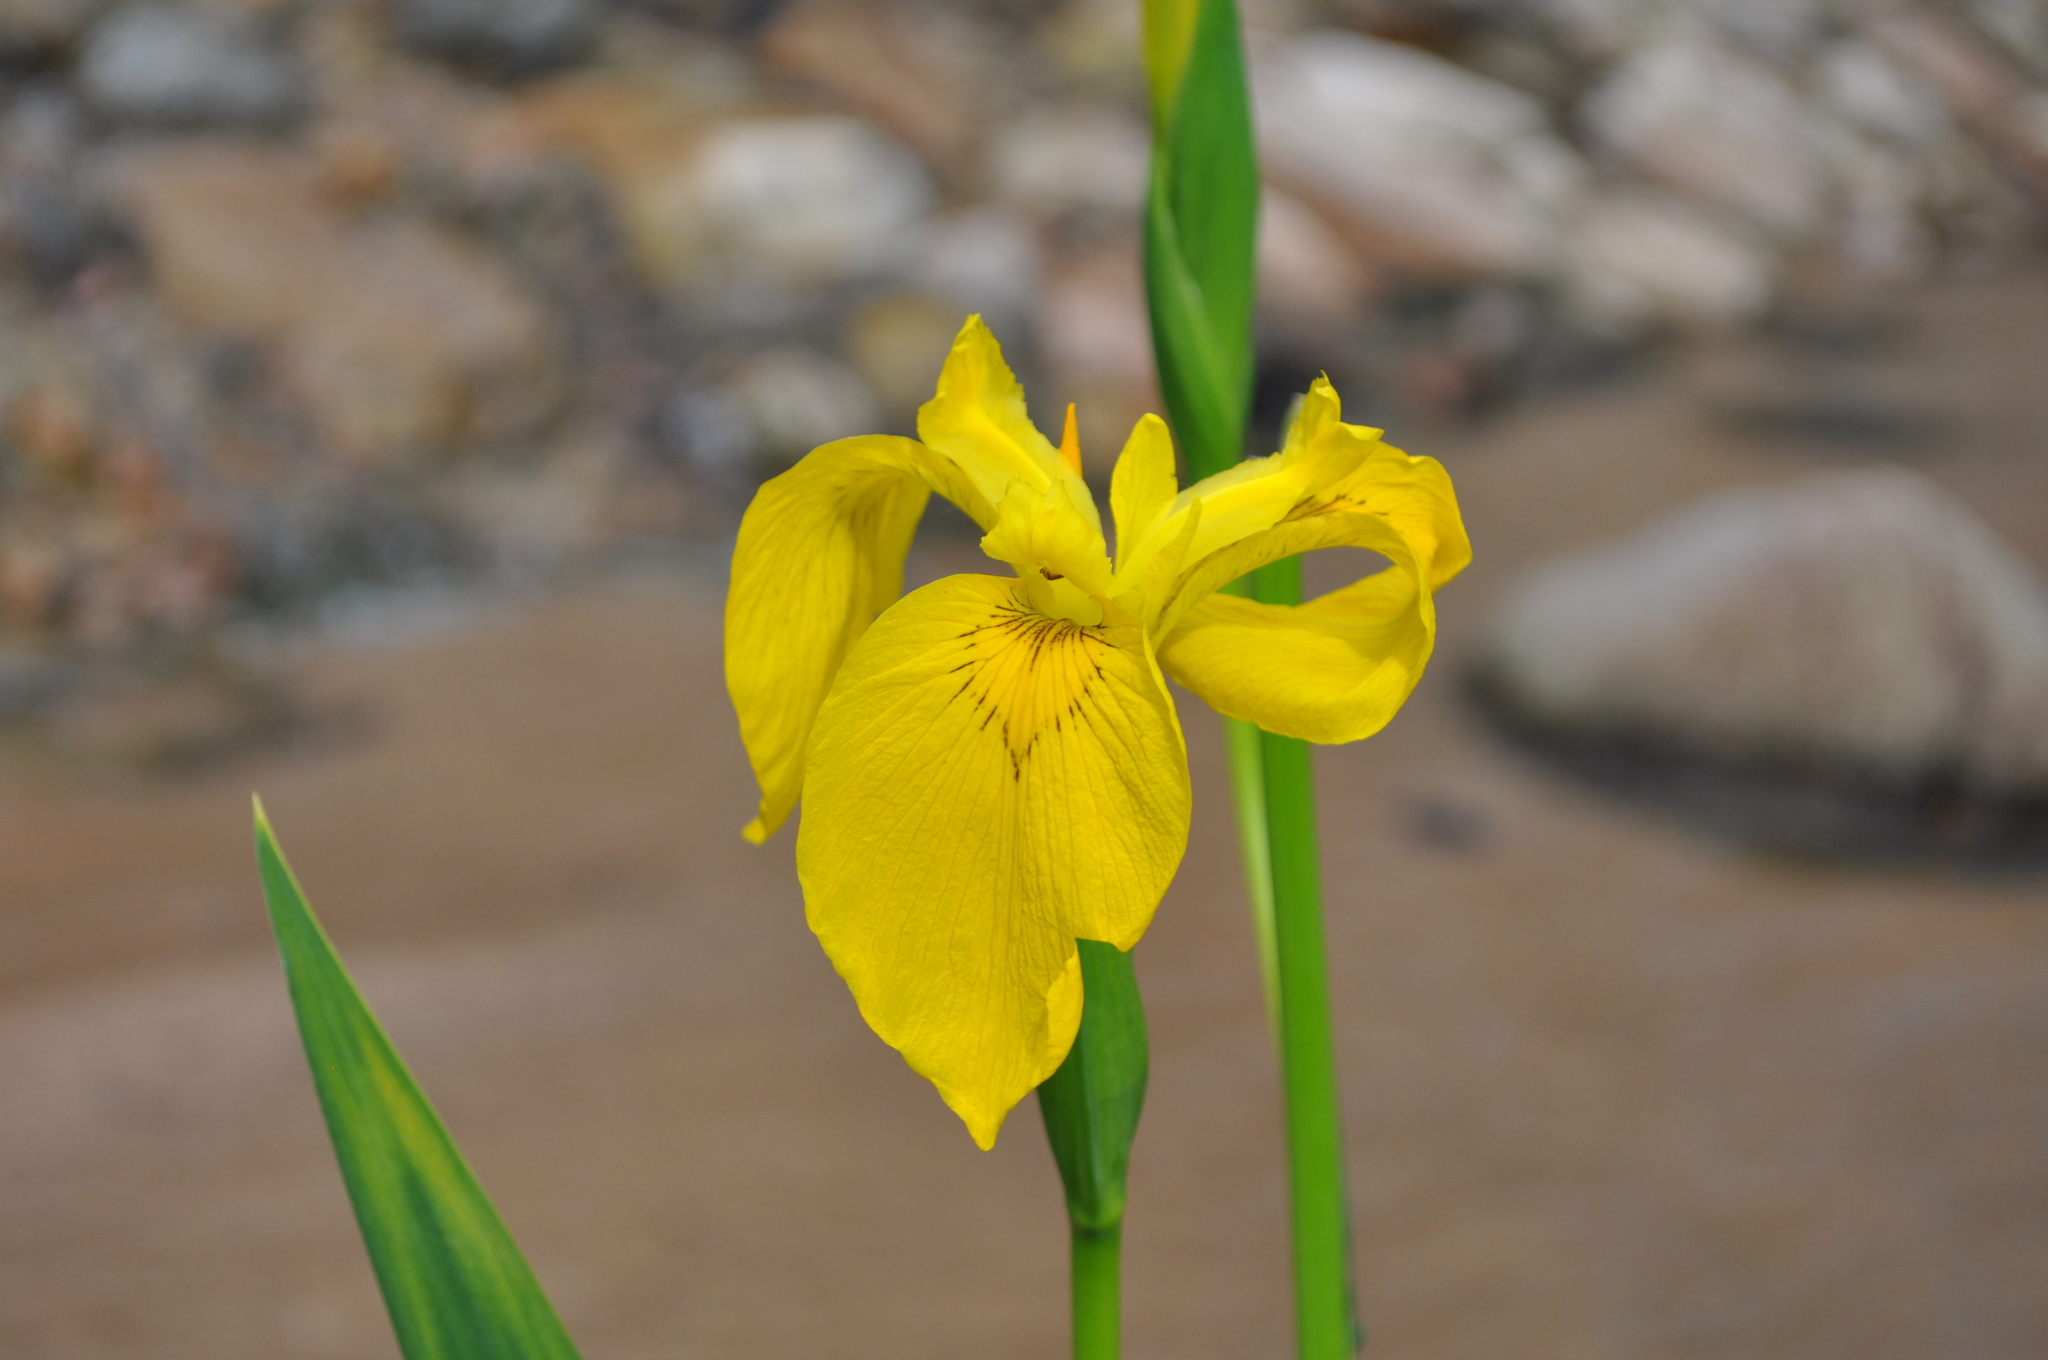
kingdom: Plantae
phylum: Tracheophyta
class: Liliopsida
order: Asparagales
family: Iridaceae
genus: Iris
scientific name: Iris pseudacorus
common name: Yellow flag
